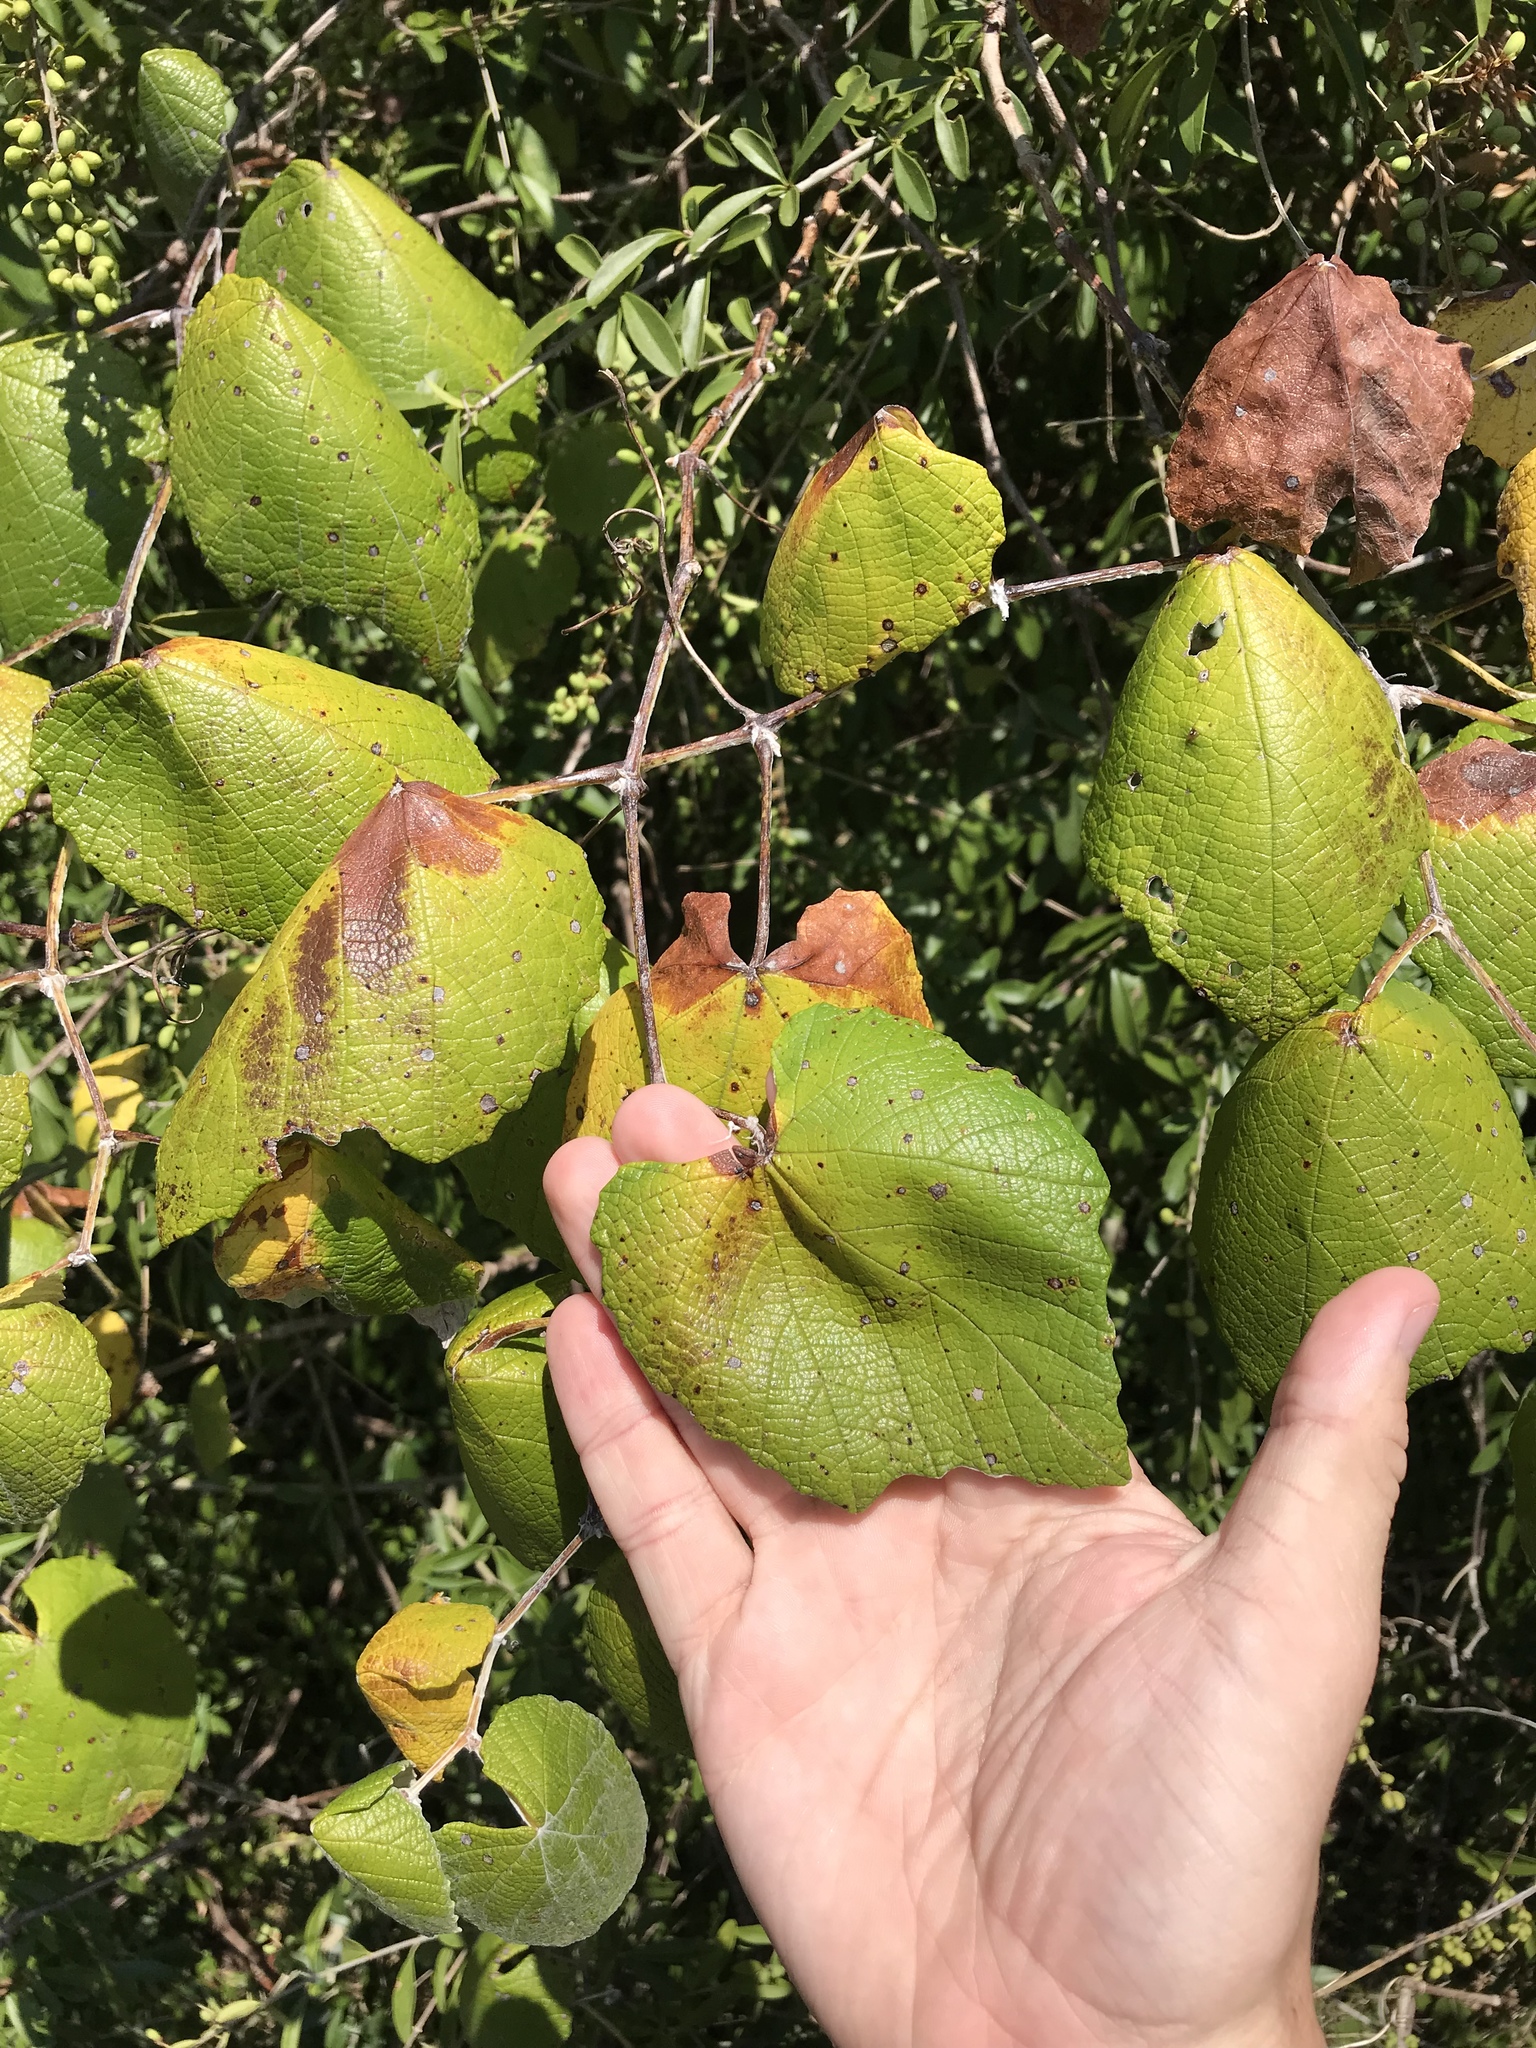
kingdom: Plantae
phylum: Tracheophyta
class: Magnoliopsida
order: Vitales
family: Vitaceae
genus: Vitis
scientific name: Vitis mustangensis
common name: Mustang grape
